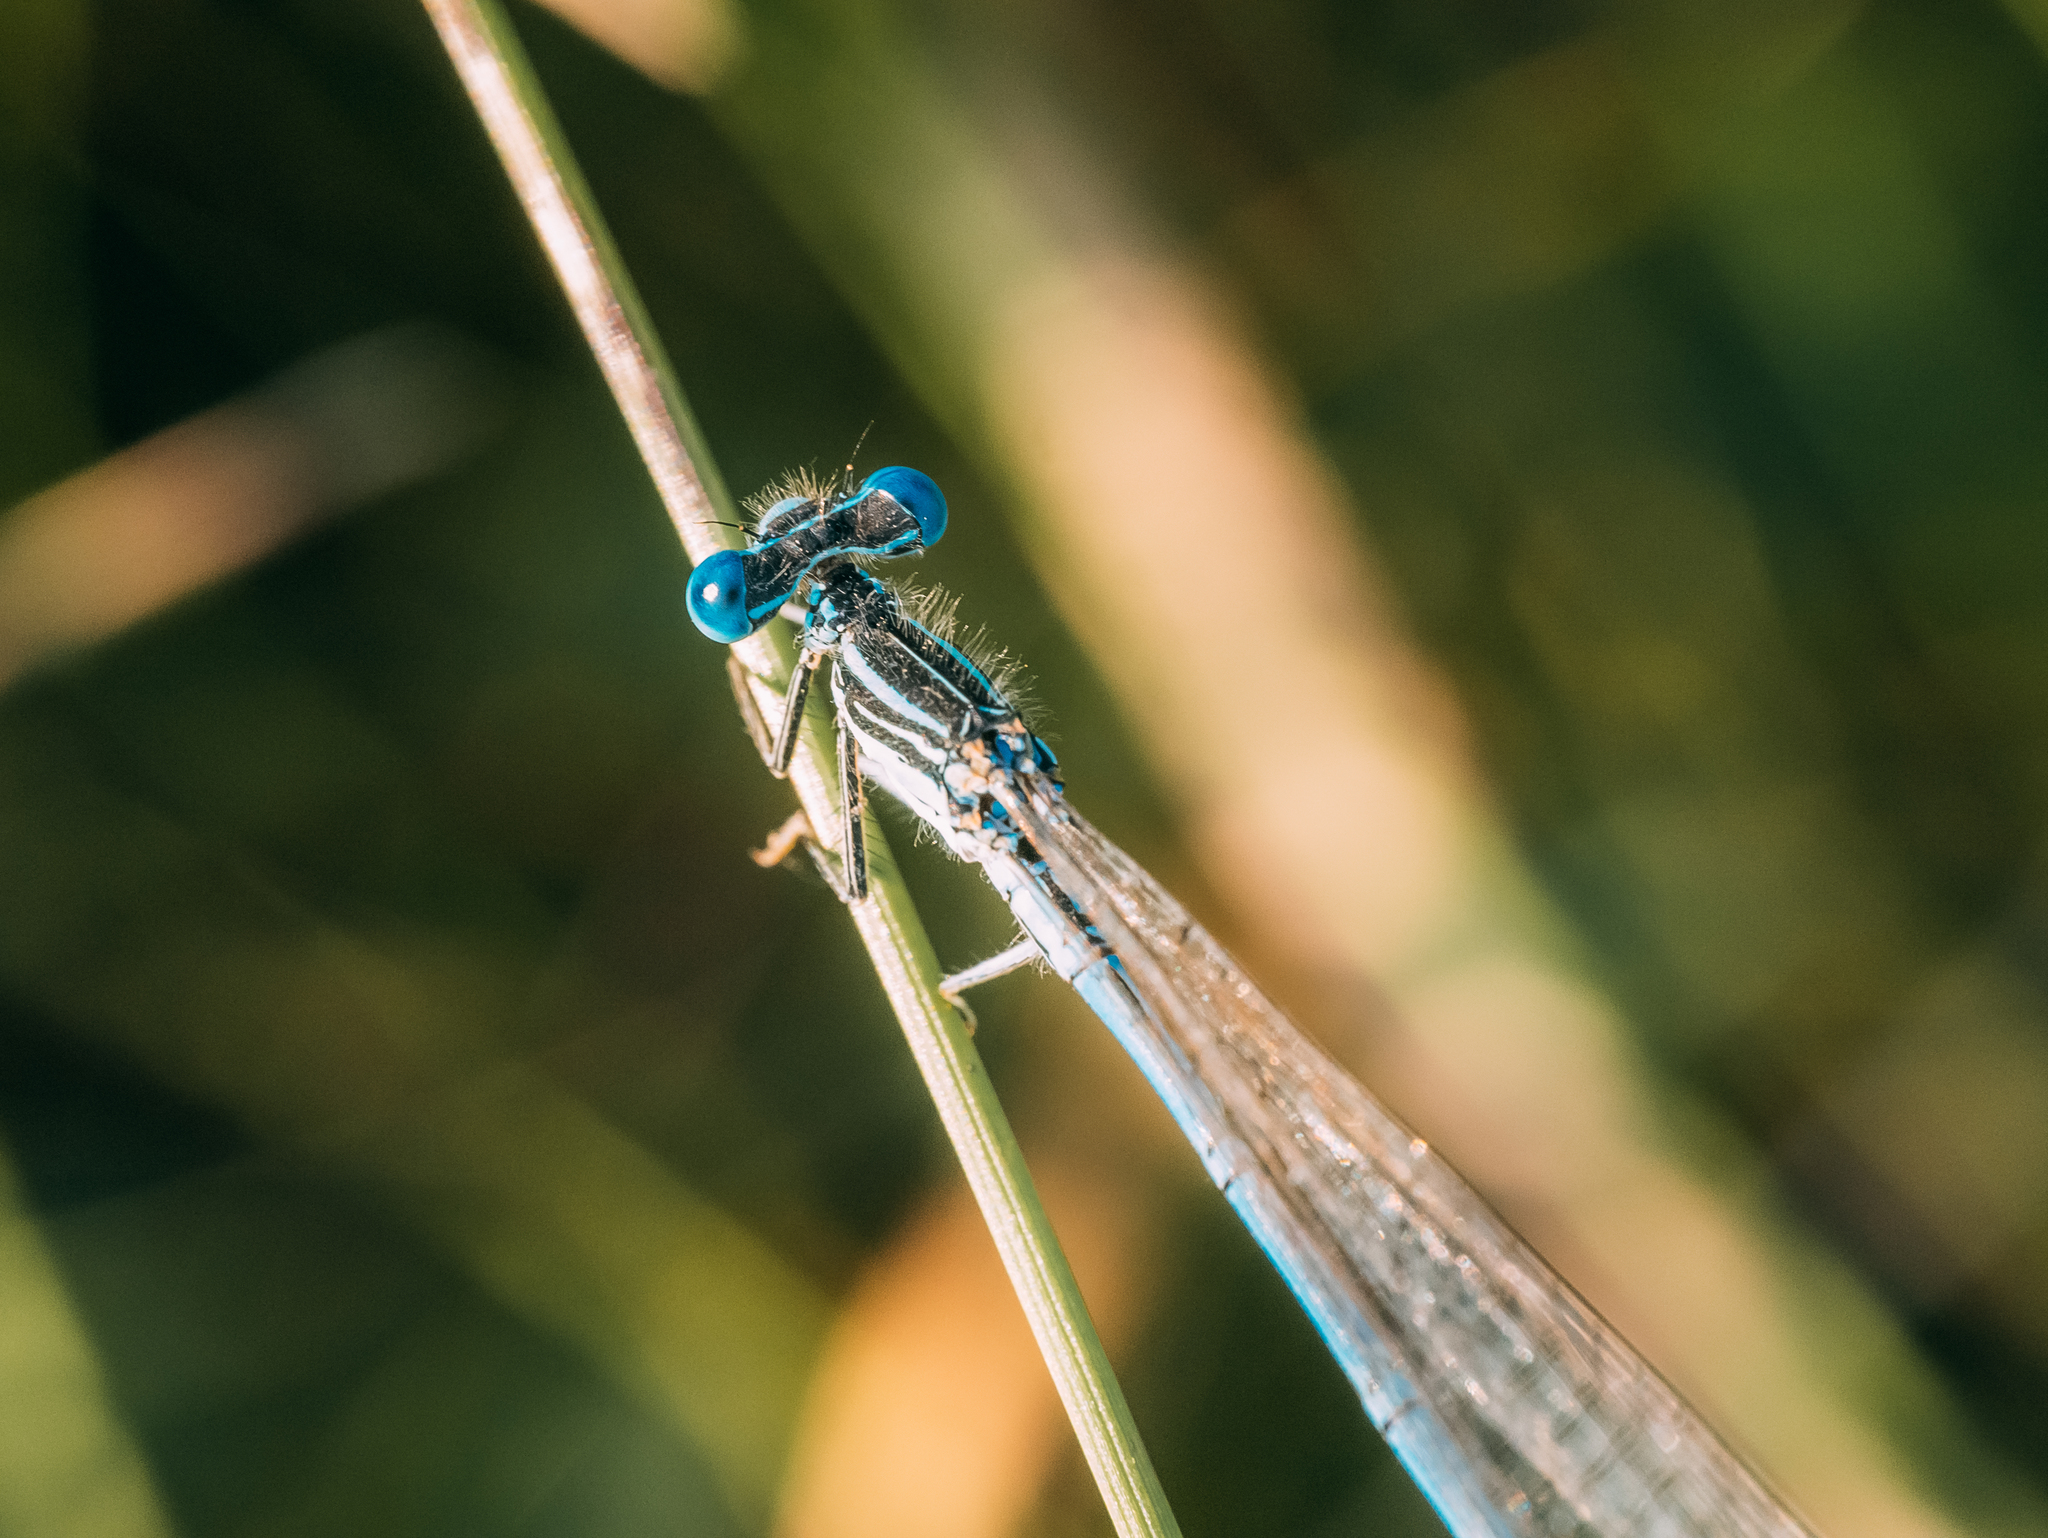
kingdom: Animalia
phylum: Arthropoda
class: Insecta
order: Odonata
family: Platycnemididae
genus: Platycnemis
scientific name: Platycnemis pennipes
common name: White-legged damselfly
